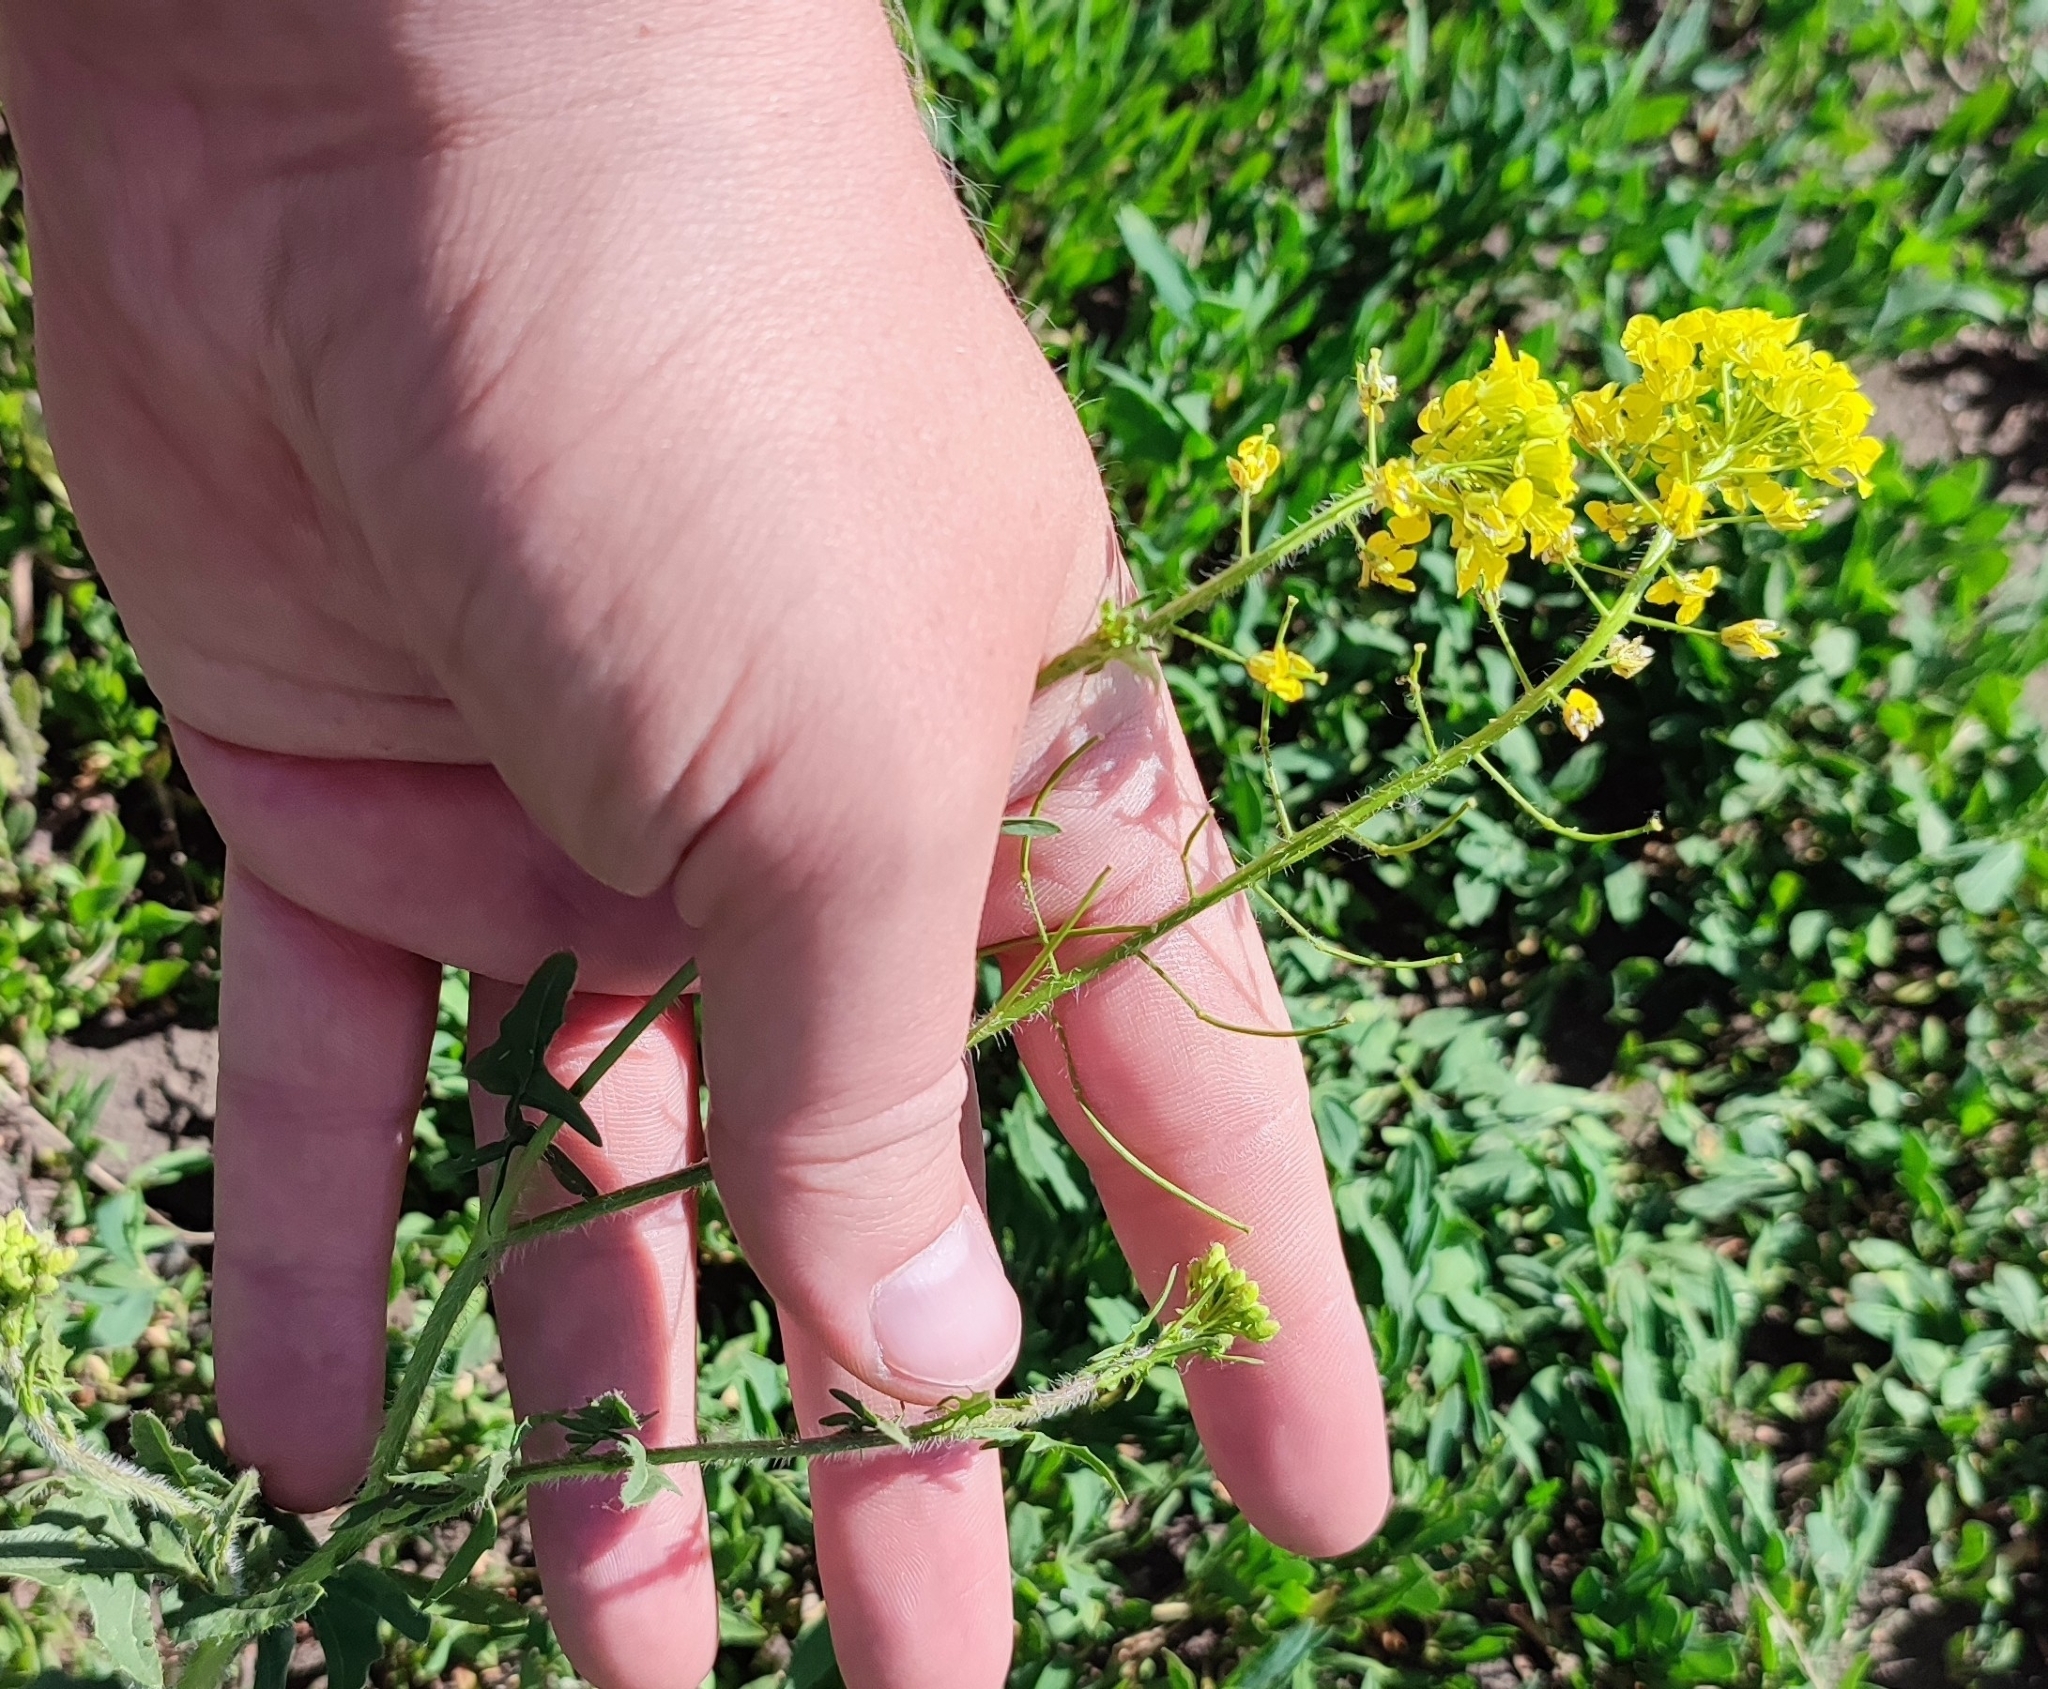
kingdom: Plantae
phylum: Tracheophyta
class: Magnoliopsida
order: Brassicales
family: Brassicaceae
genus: Sisymbrium
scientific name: Sisymbrium loeselii
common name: False london-rocket
